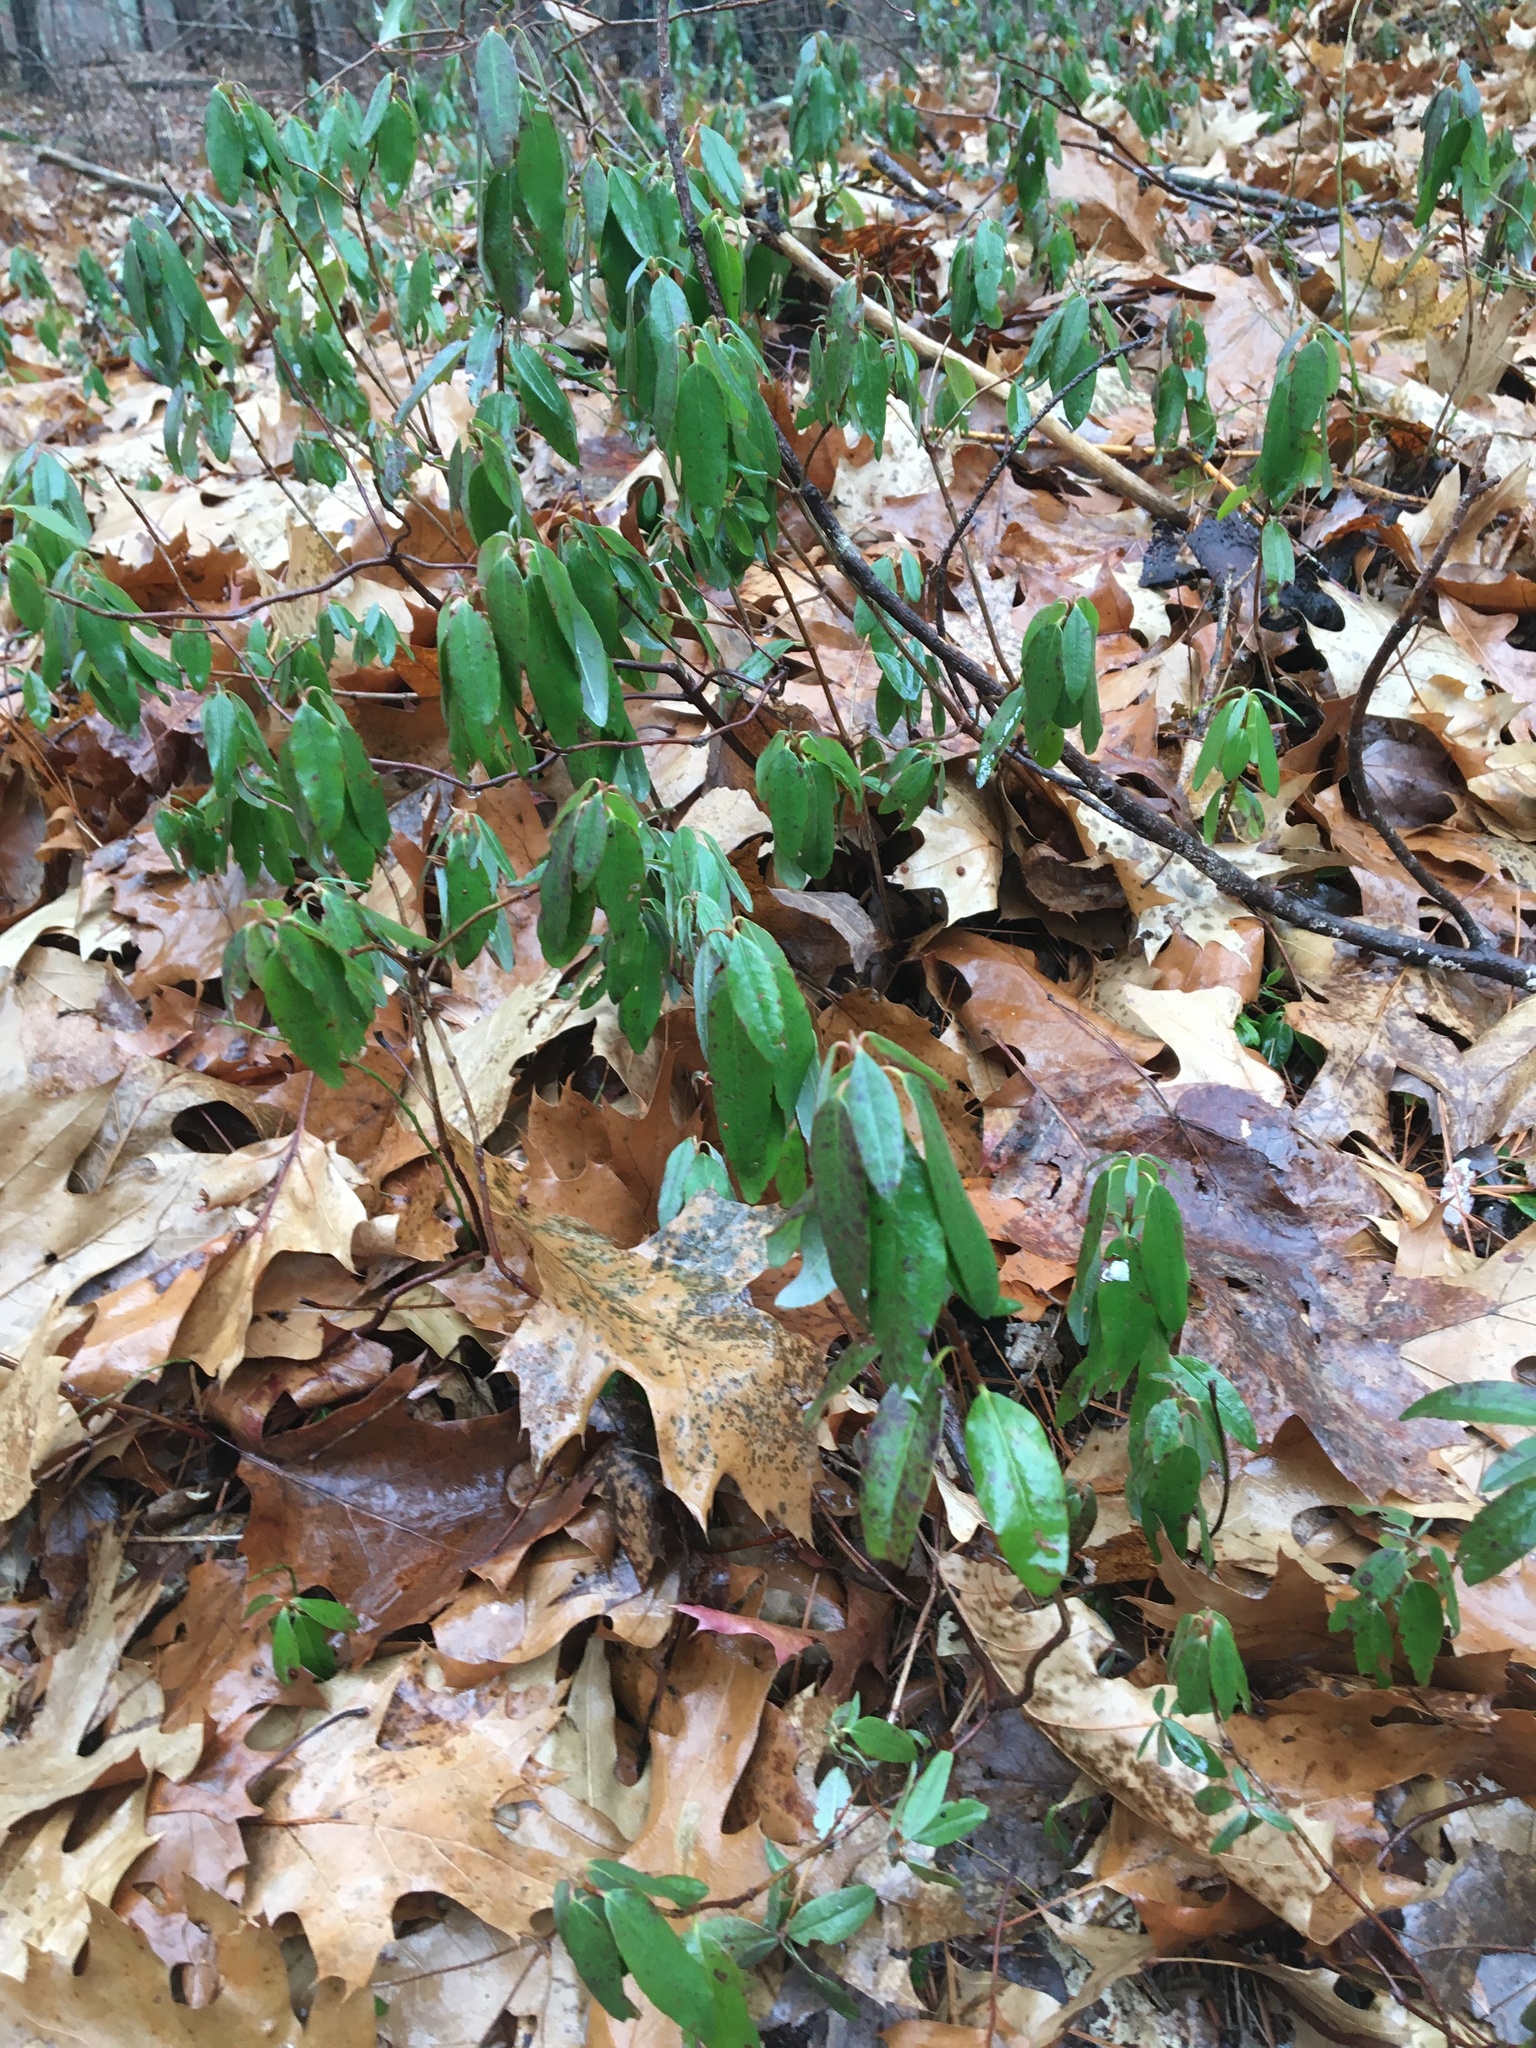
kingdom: Plantae
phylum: Tracheophyta
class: Magnoliopsida
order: Ericales
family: Ericaceae
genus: Kalmia
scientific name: Kalmia angustifolia
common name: Sheep-laurel
